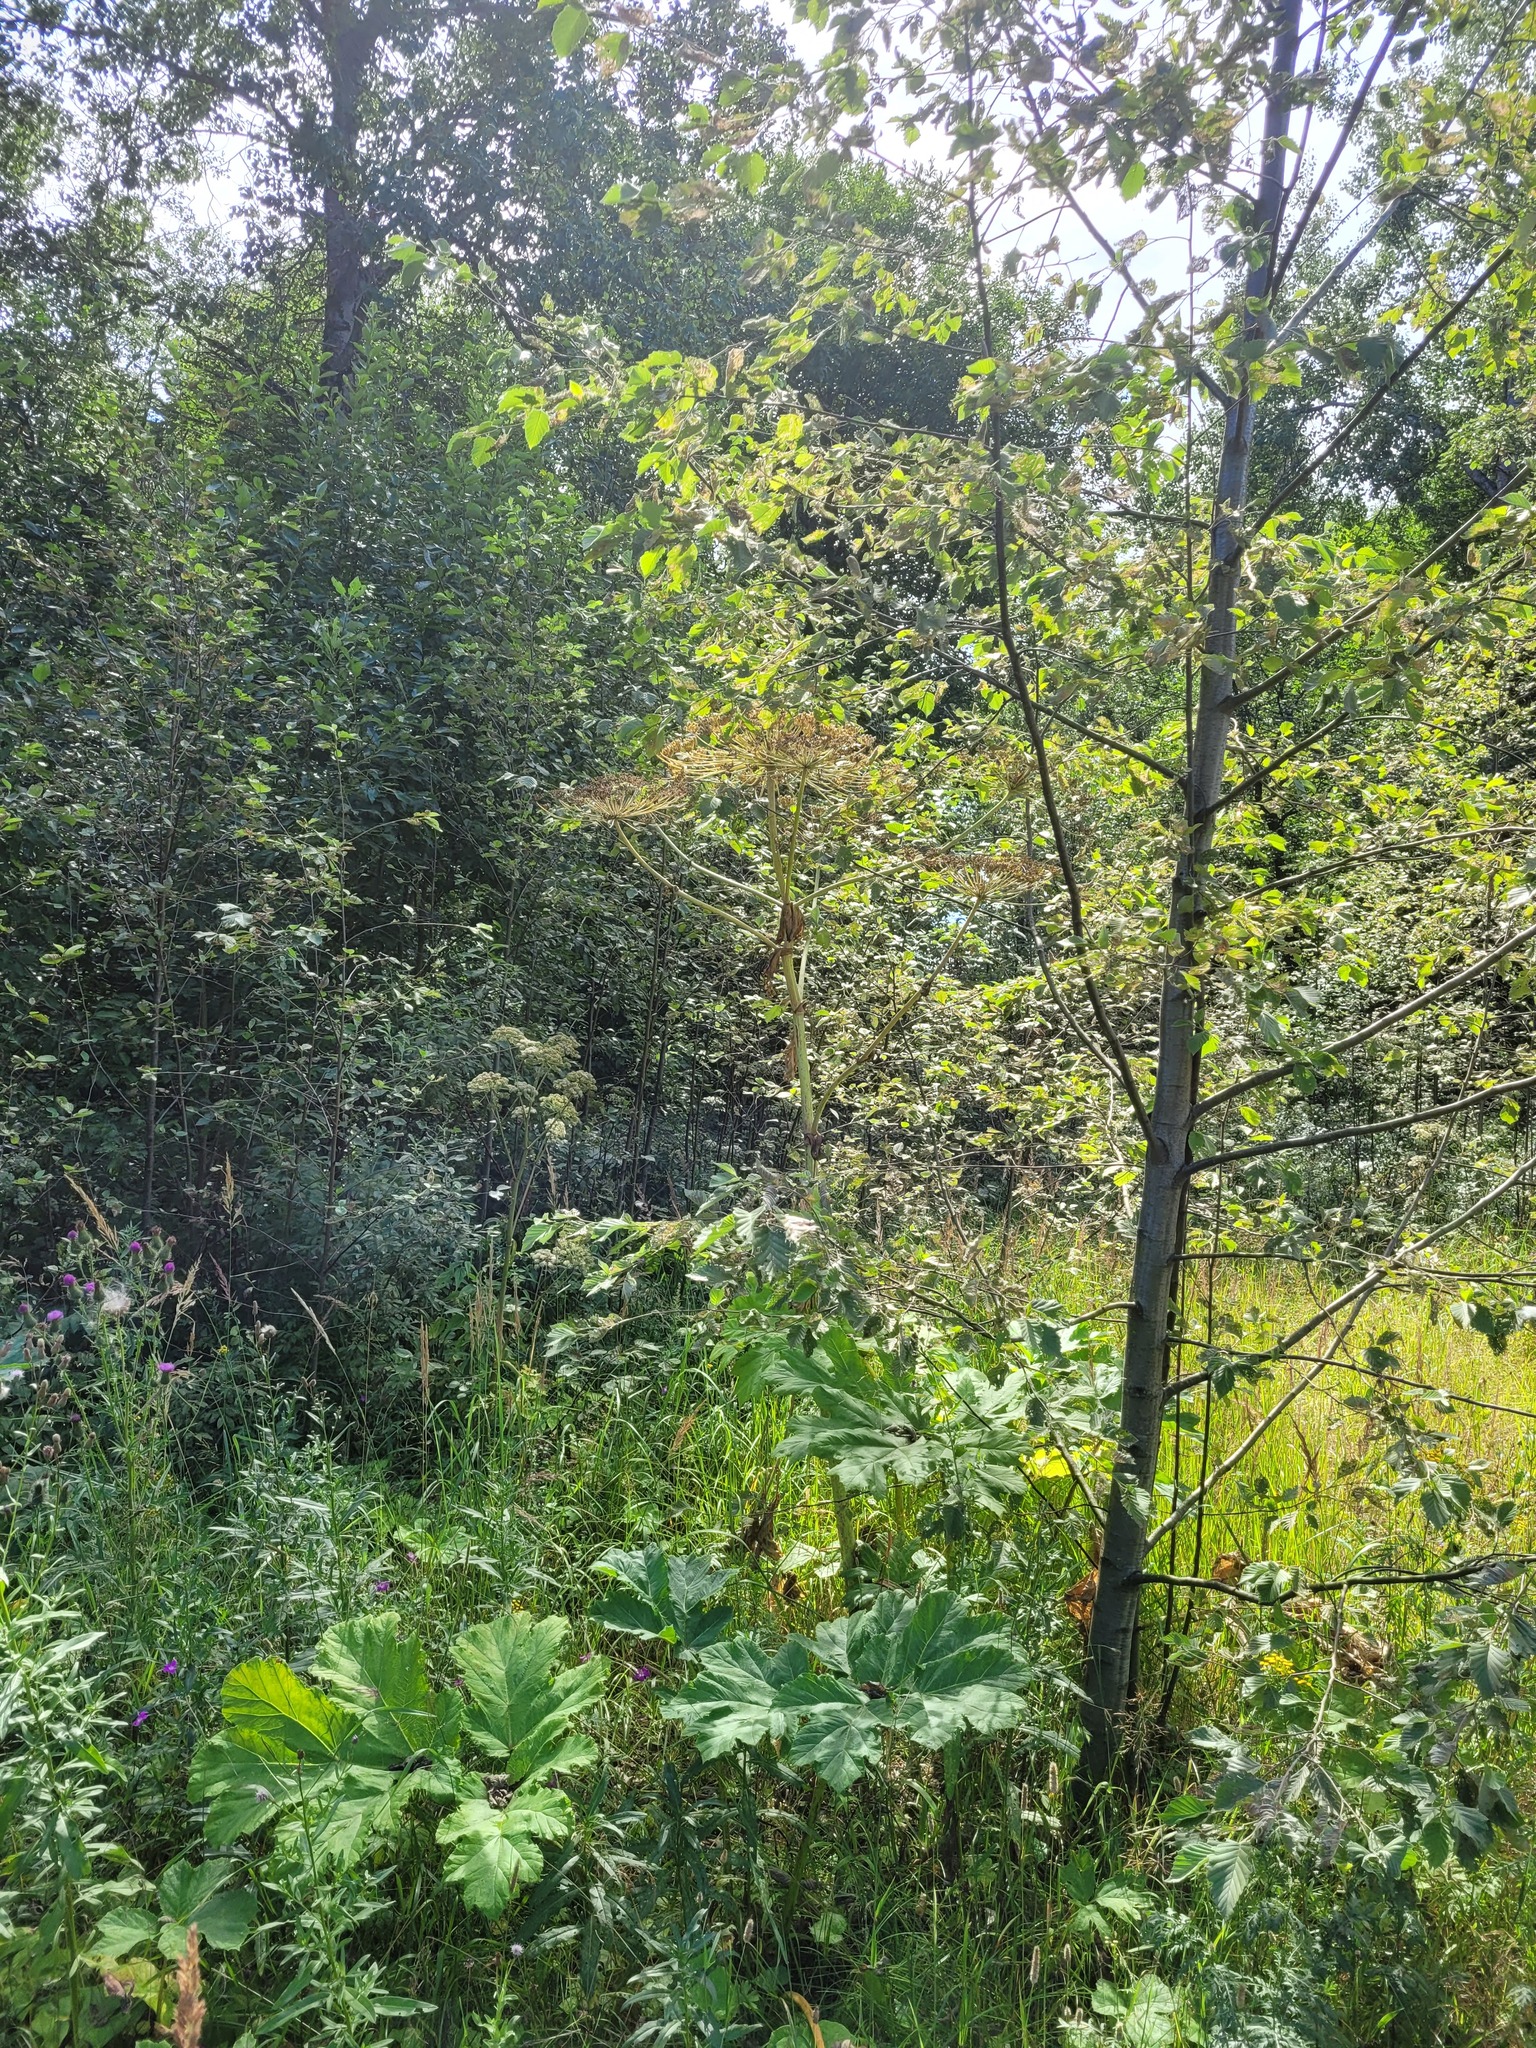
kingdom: Plantae
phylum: Tracheophyta
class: Magnoliopsida
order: Apiales
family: Apiaceae
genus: Heracleum
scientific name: Heracleum sosnowskyi
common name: Sosnowsky's hogweed
